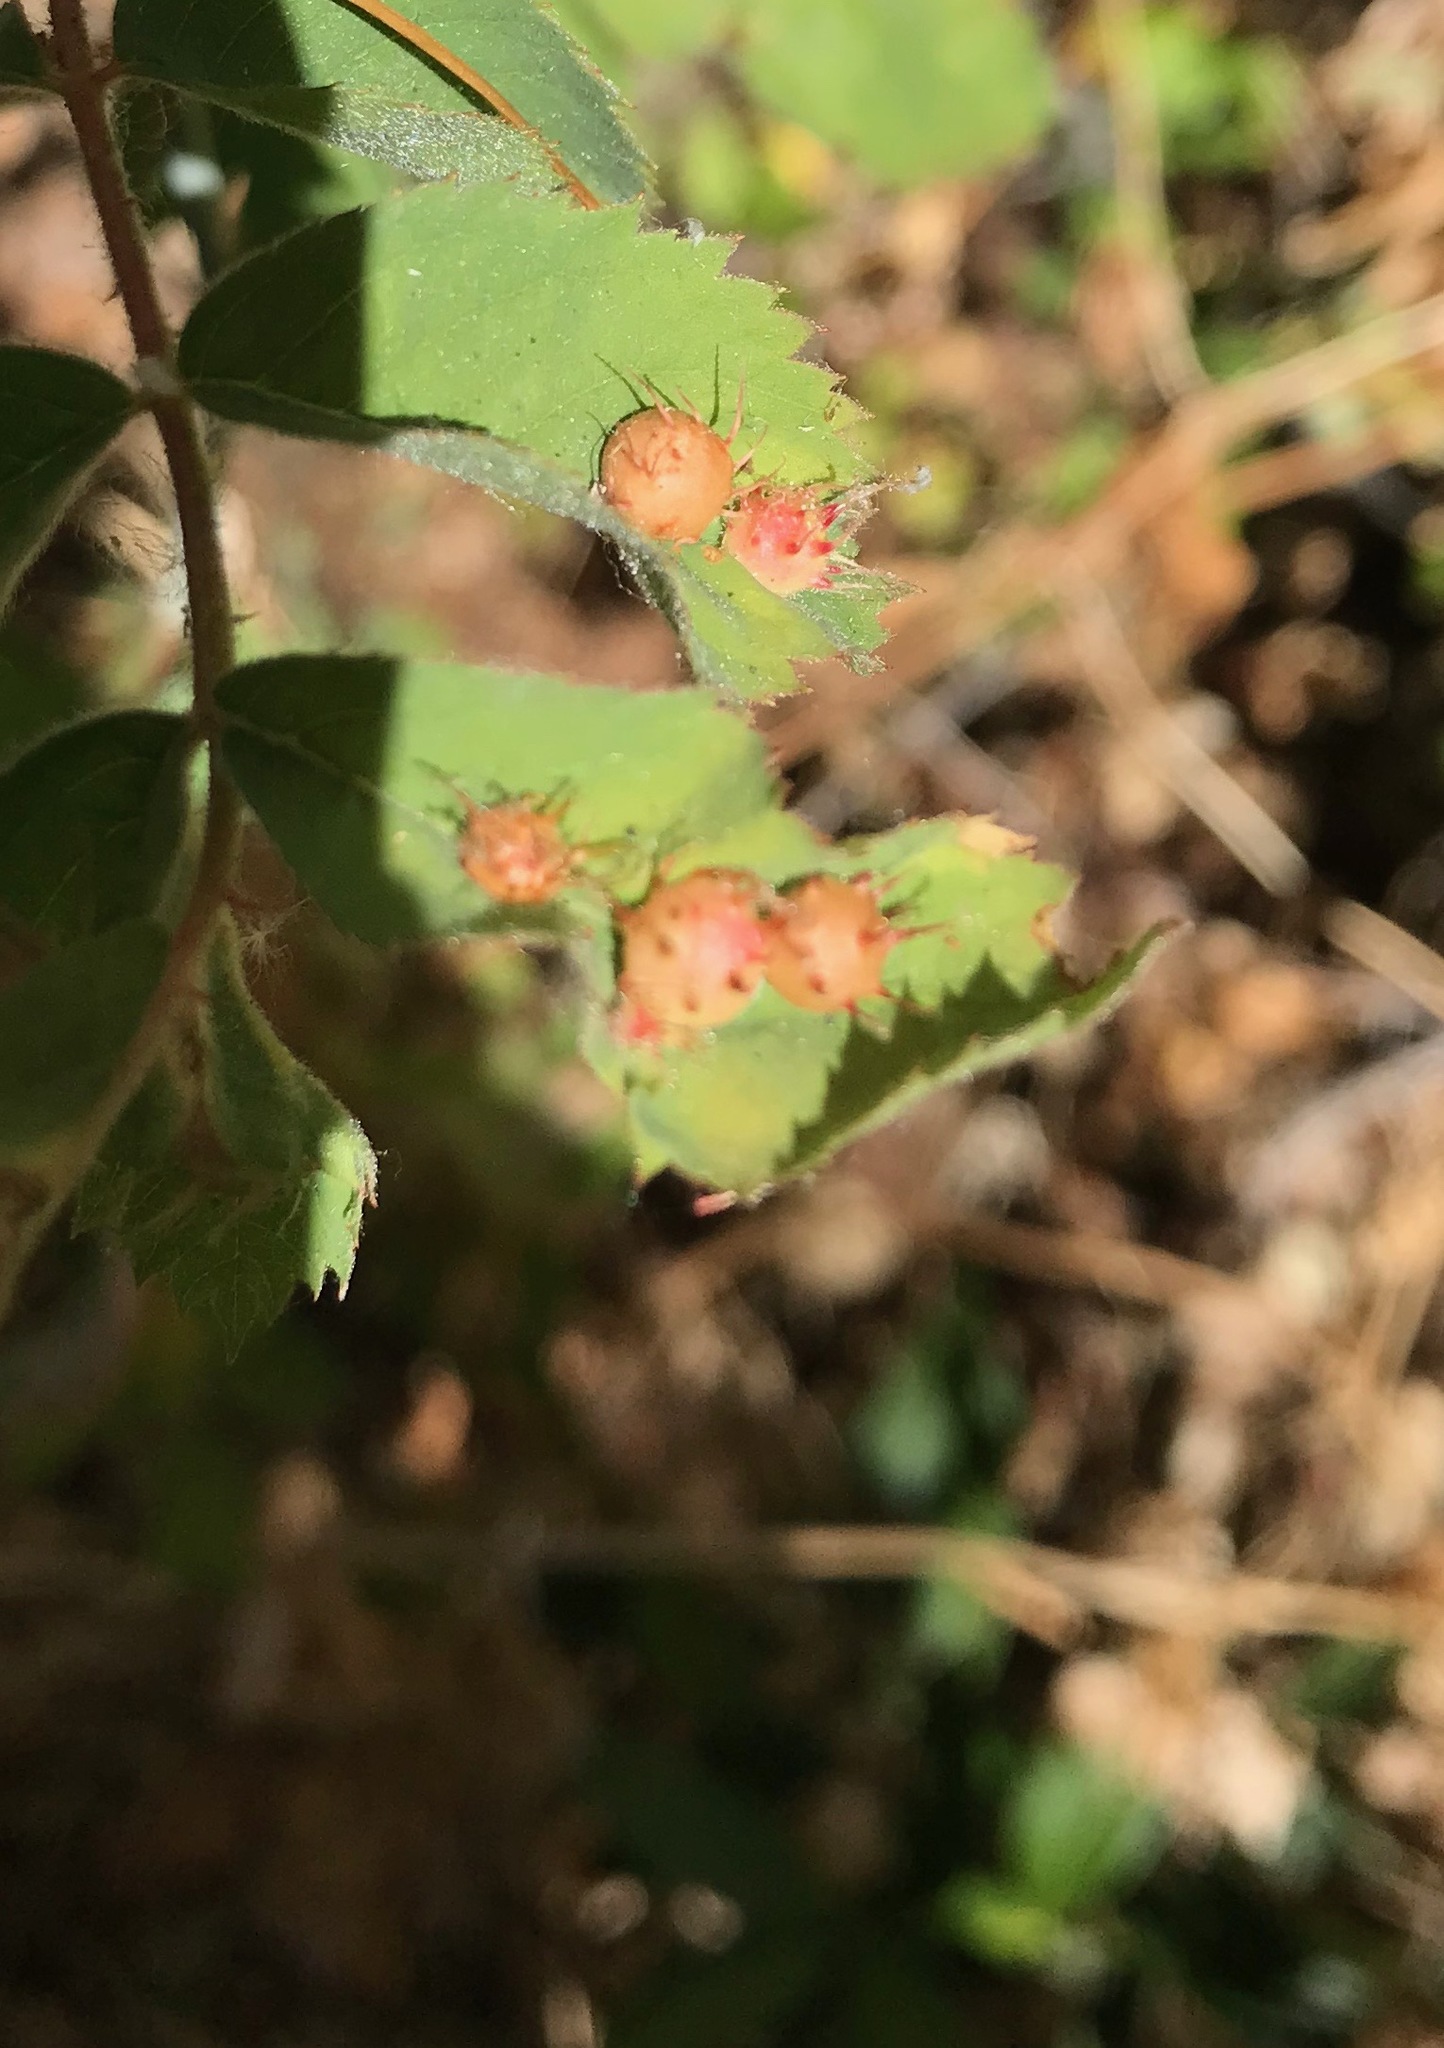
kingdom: Animalia
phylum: Arthropoda
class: Insecta
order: Hymenoptera
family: Cynipidae
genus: Diplolepis
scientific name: Diplolepis polita
